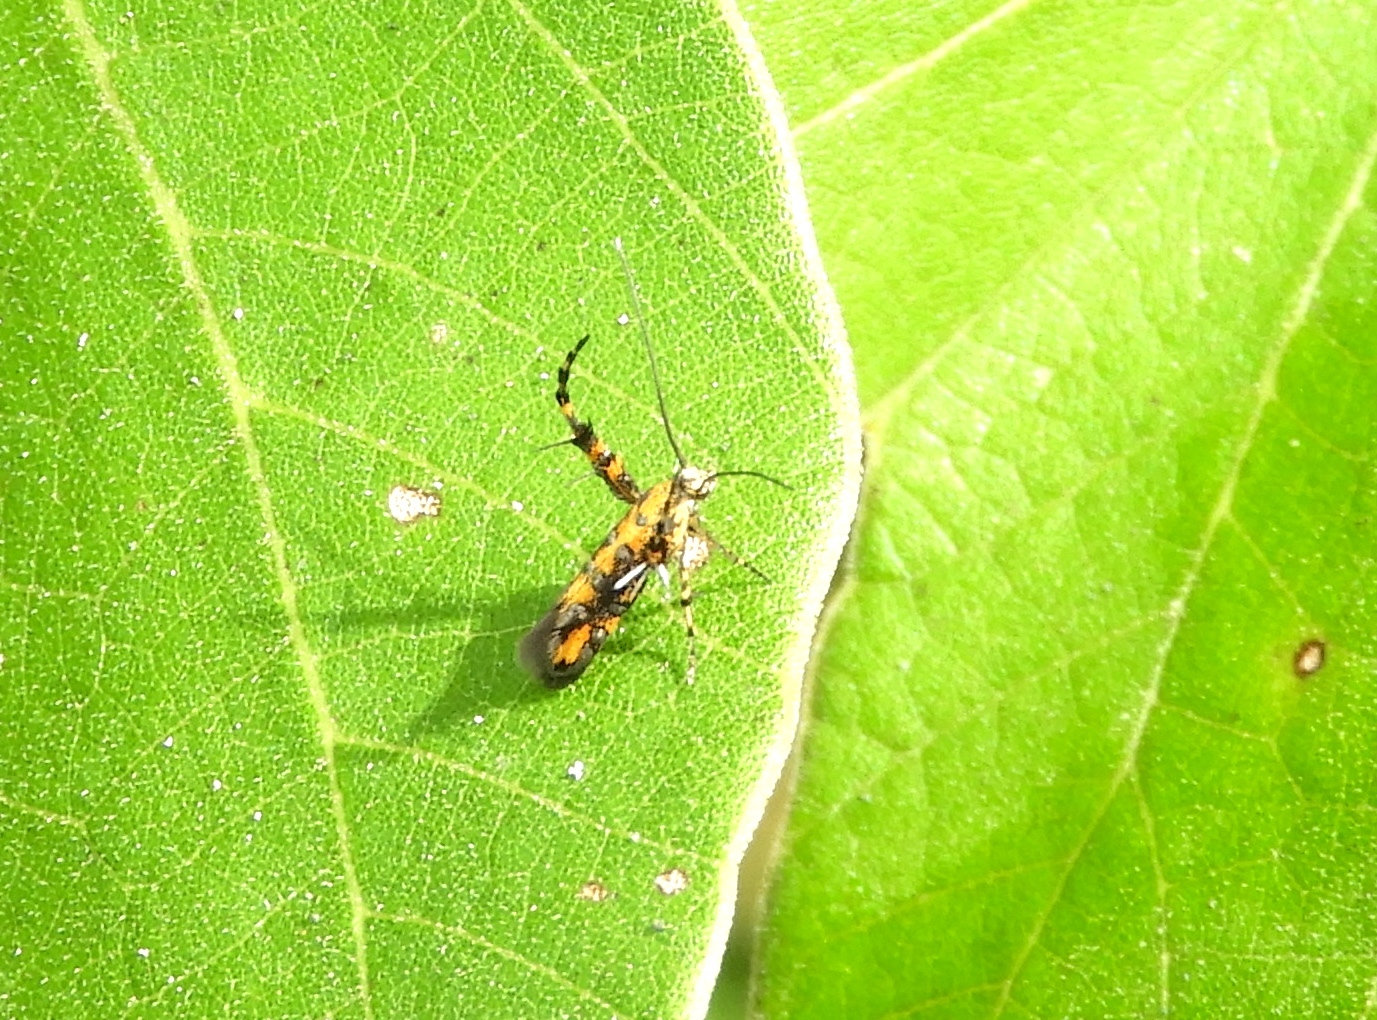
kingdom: Animalia
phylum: Arthropoda
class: Insecta
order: Lepidoptera
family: Heliodinidae
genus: Heliodines
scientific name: Heliodines
